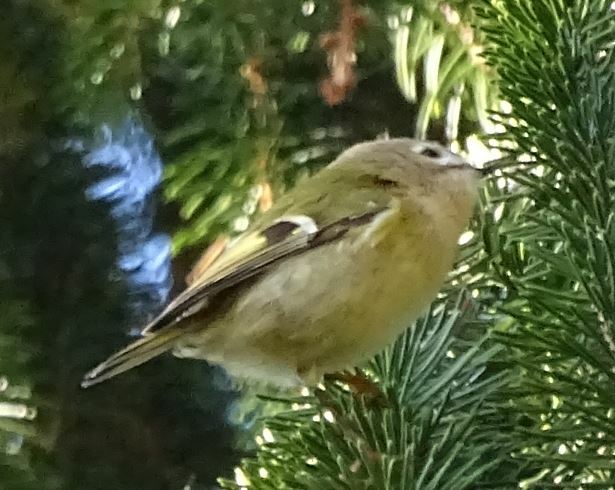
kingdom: Animalia
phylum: Chordata
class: Aves
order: Passeriformes
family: Regulidae
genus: Regulus
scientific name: Regulus regulus
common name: Goldcrest
